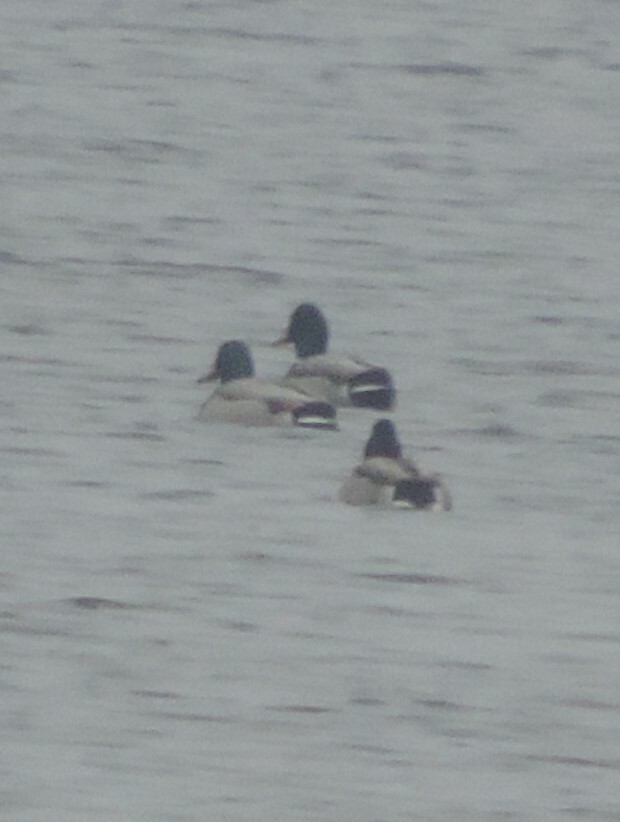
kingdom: Animalia
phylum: Chordata
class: Aves
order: Anseriformes
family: Anatidae
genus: Anas
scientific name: Anas platyrhynchos
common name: Mallard
